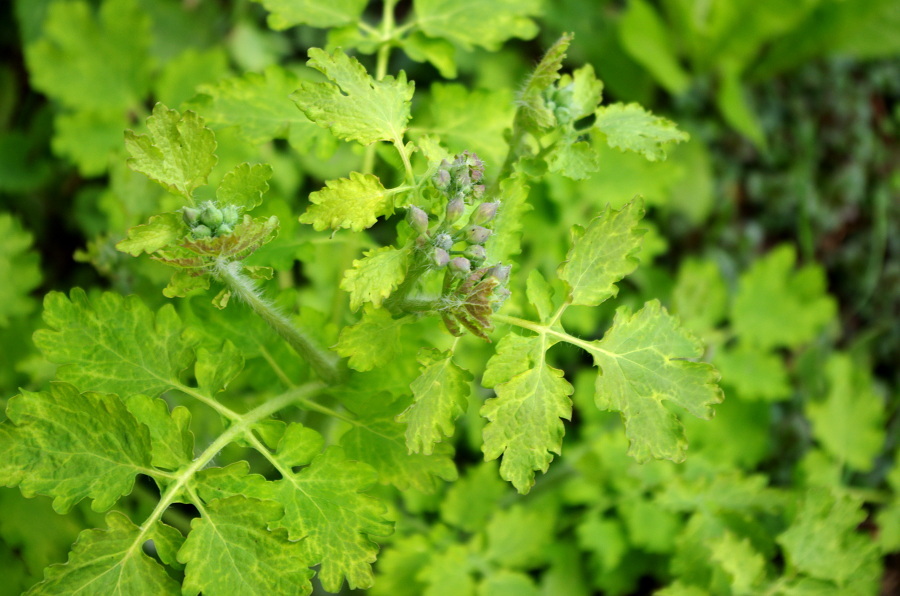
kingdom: Plantae
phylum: Tracheophyta
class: Magnoliopsida
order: Ranunculales
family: Papaveraceae
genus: Chelidonium
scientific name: Chelidonium majus
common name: Greater celandine
